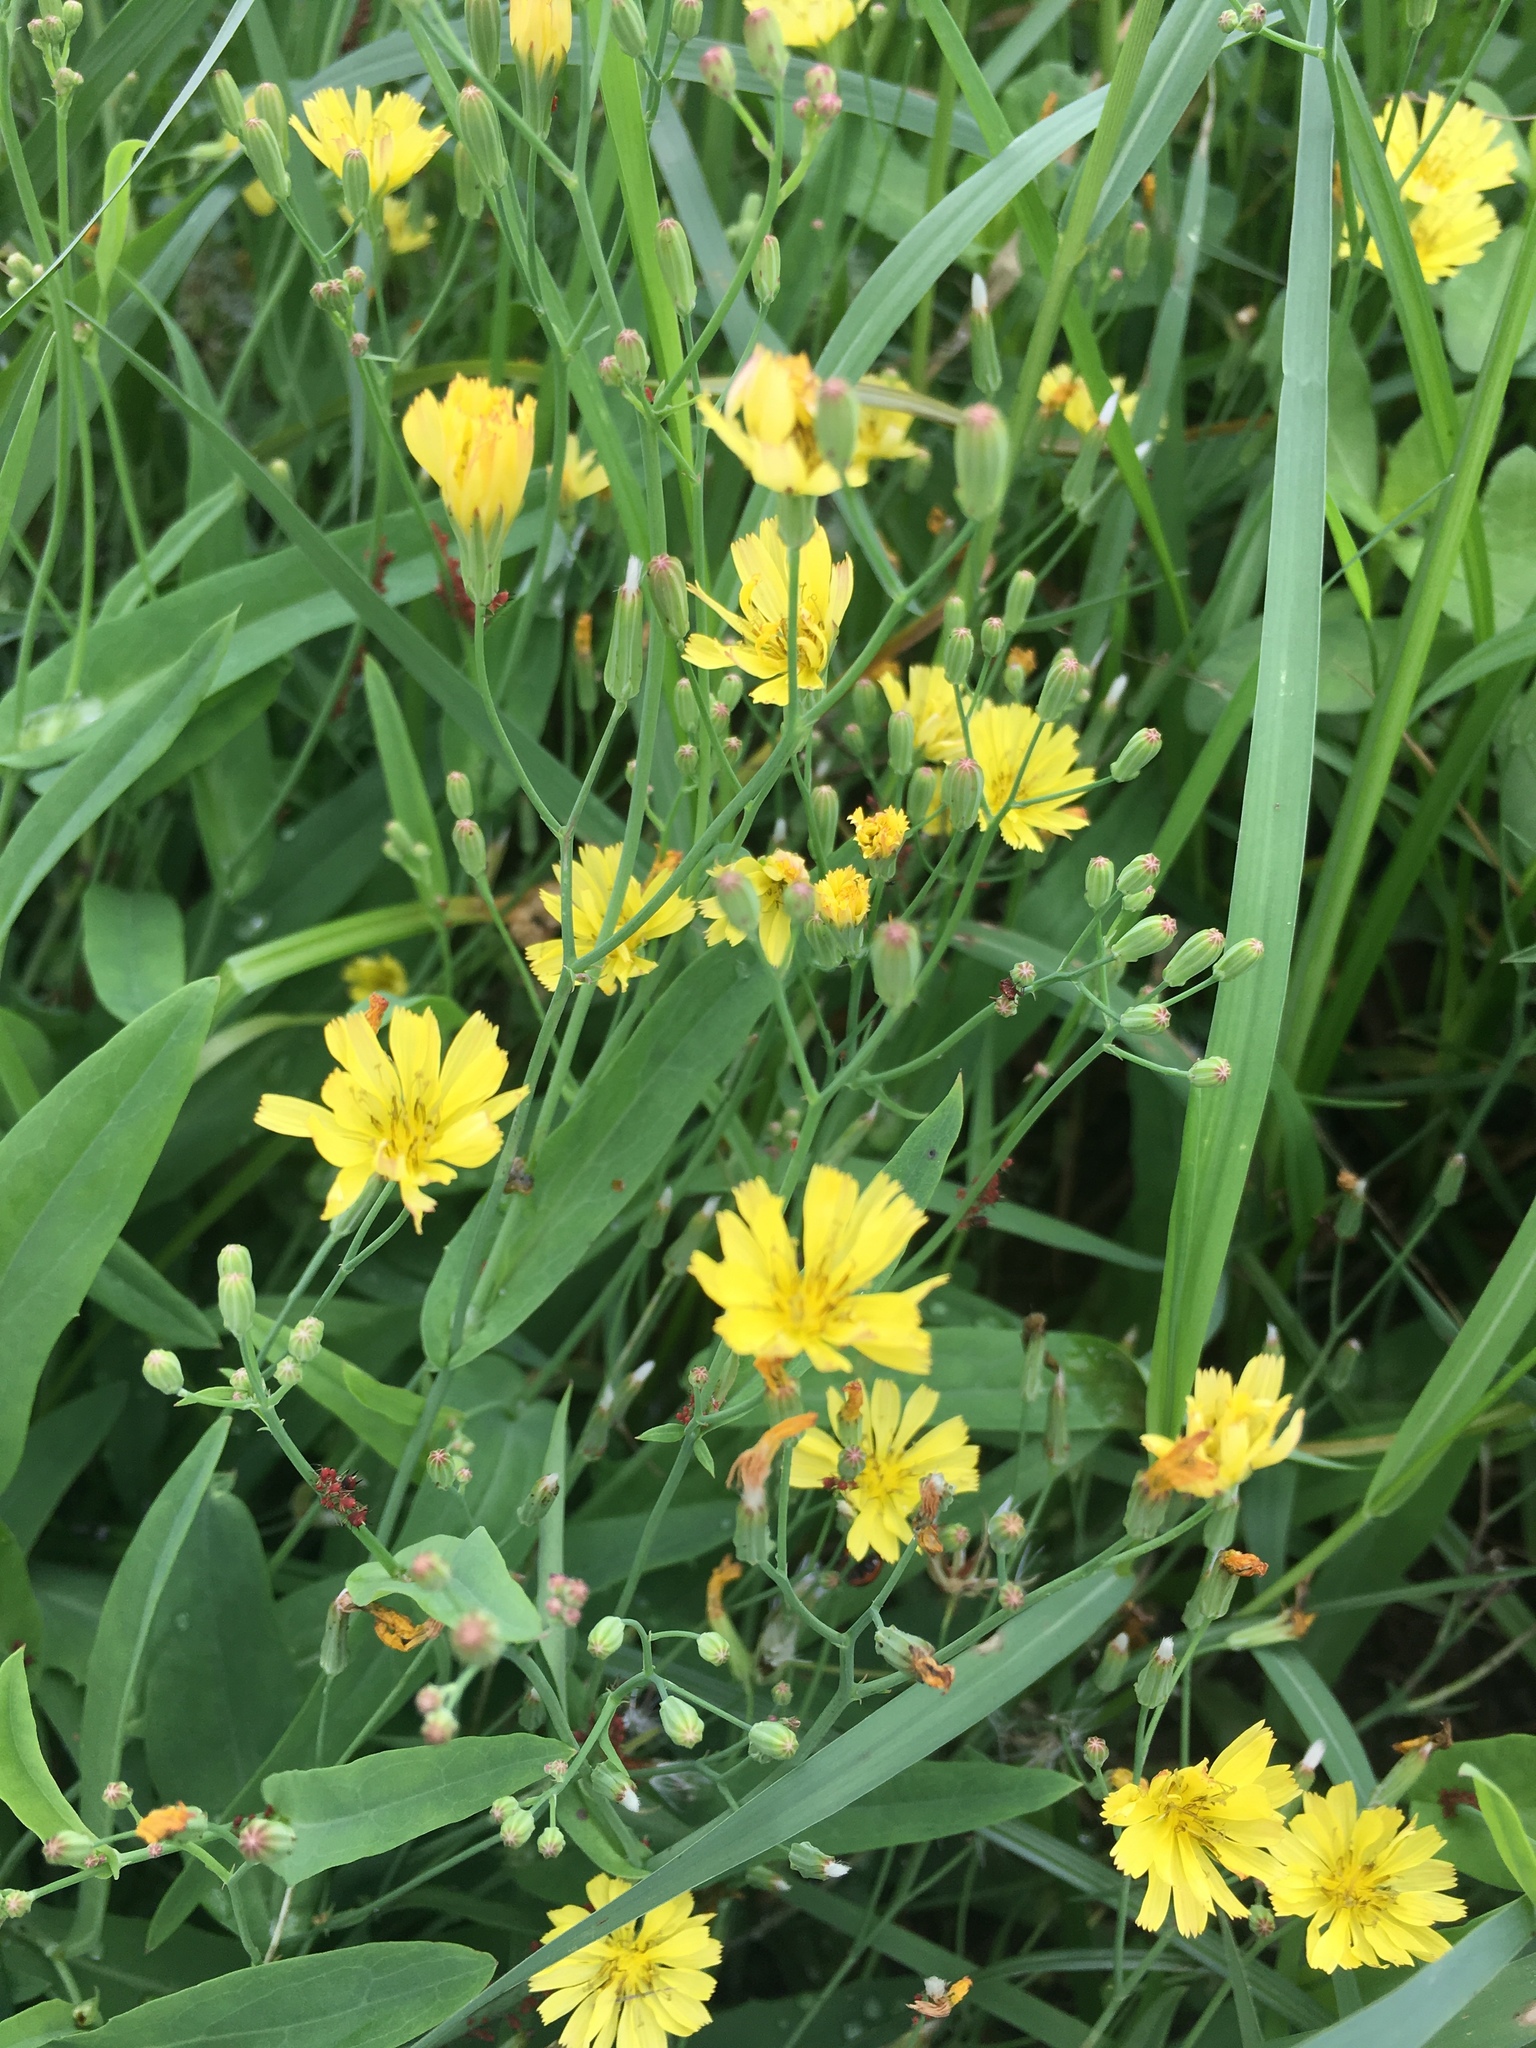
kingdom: Plantae
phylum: Tracheophyta
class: Magnoliopsida
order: Asterales
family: Asteraceae
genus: Ixeris
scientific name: Ixeris chinensis
